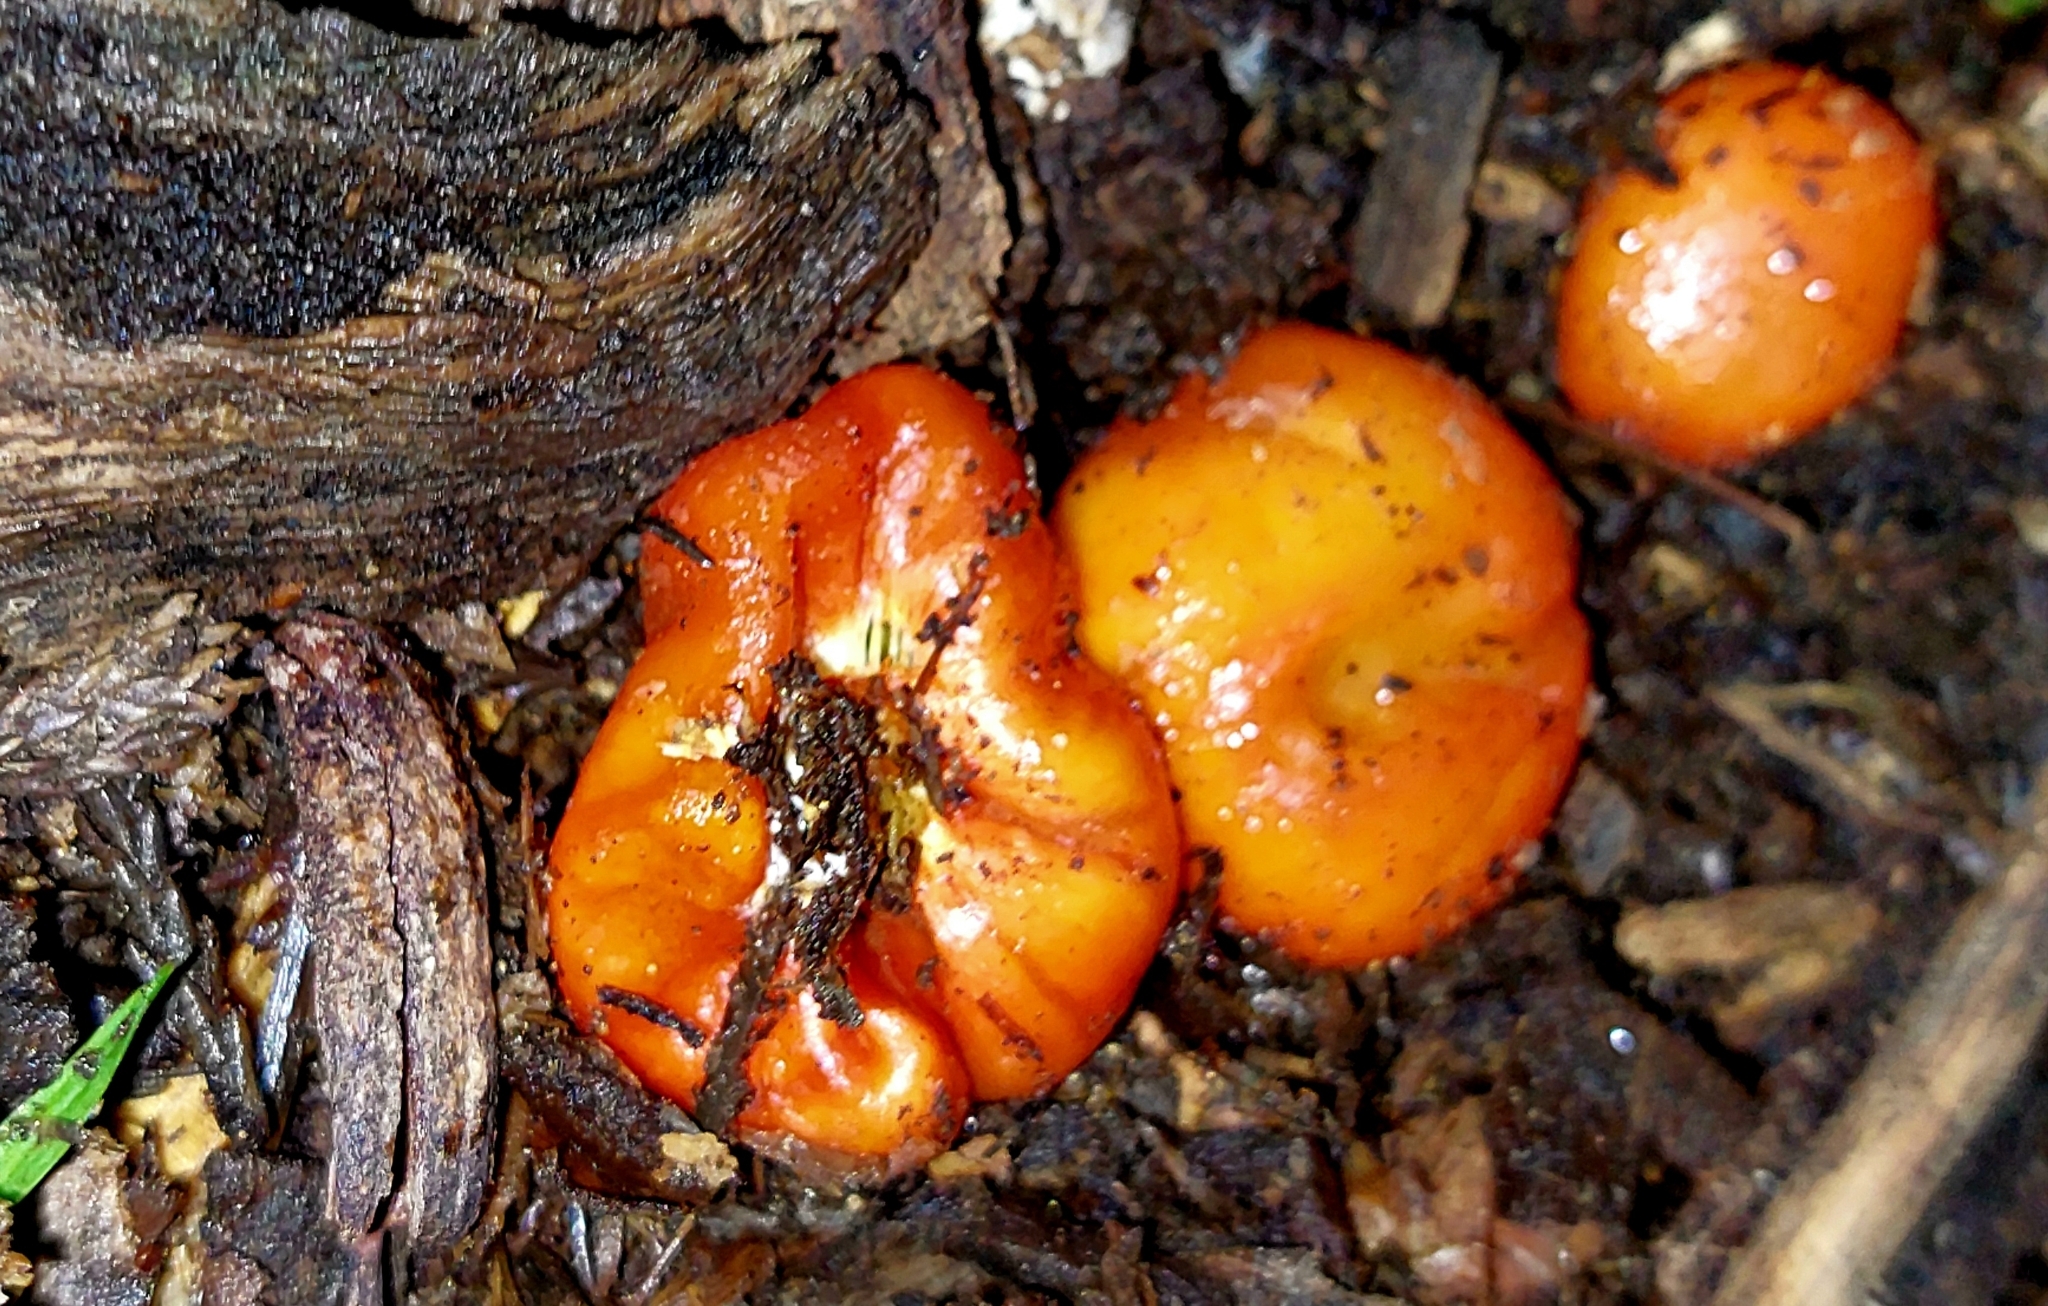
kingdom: Fungi
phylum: Basidiomycota
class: Agaricomycetes
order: Agaricales
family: Strophariaceae
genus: Leratiomyces
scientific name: Leratiomyces erythrocephalus
